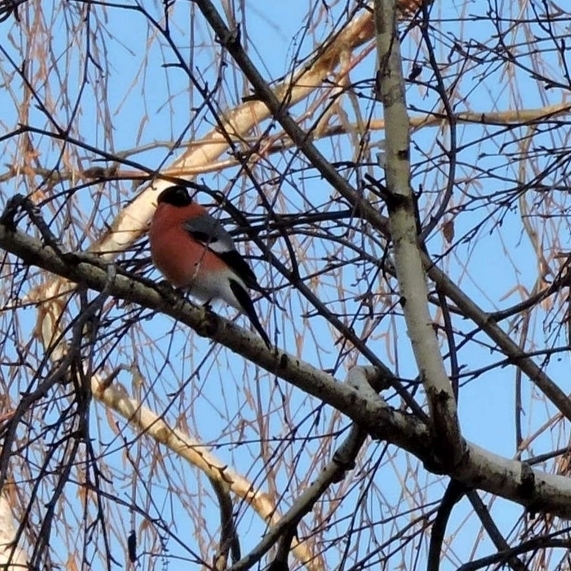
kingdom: Animalia
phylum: Chordata
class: Aves
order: Passeriformes
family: Fringillidae
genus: Pyrrhula
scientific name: Pyrrhula pyrrhula
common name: Eurasian bullfinch
